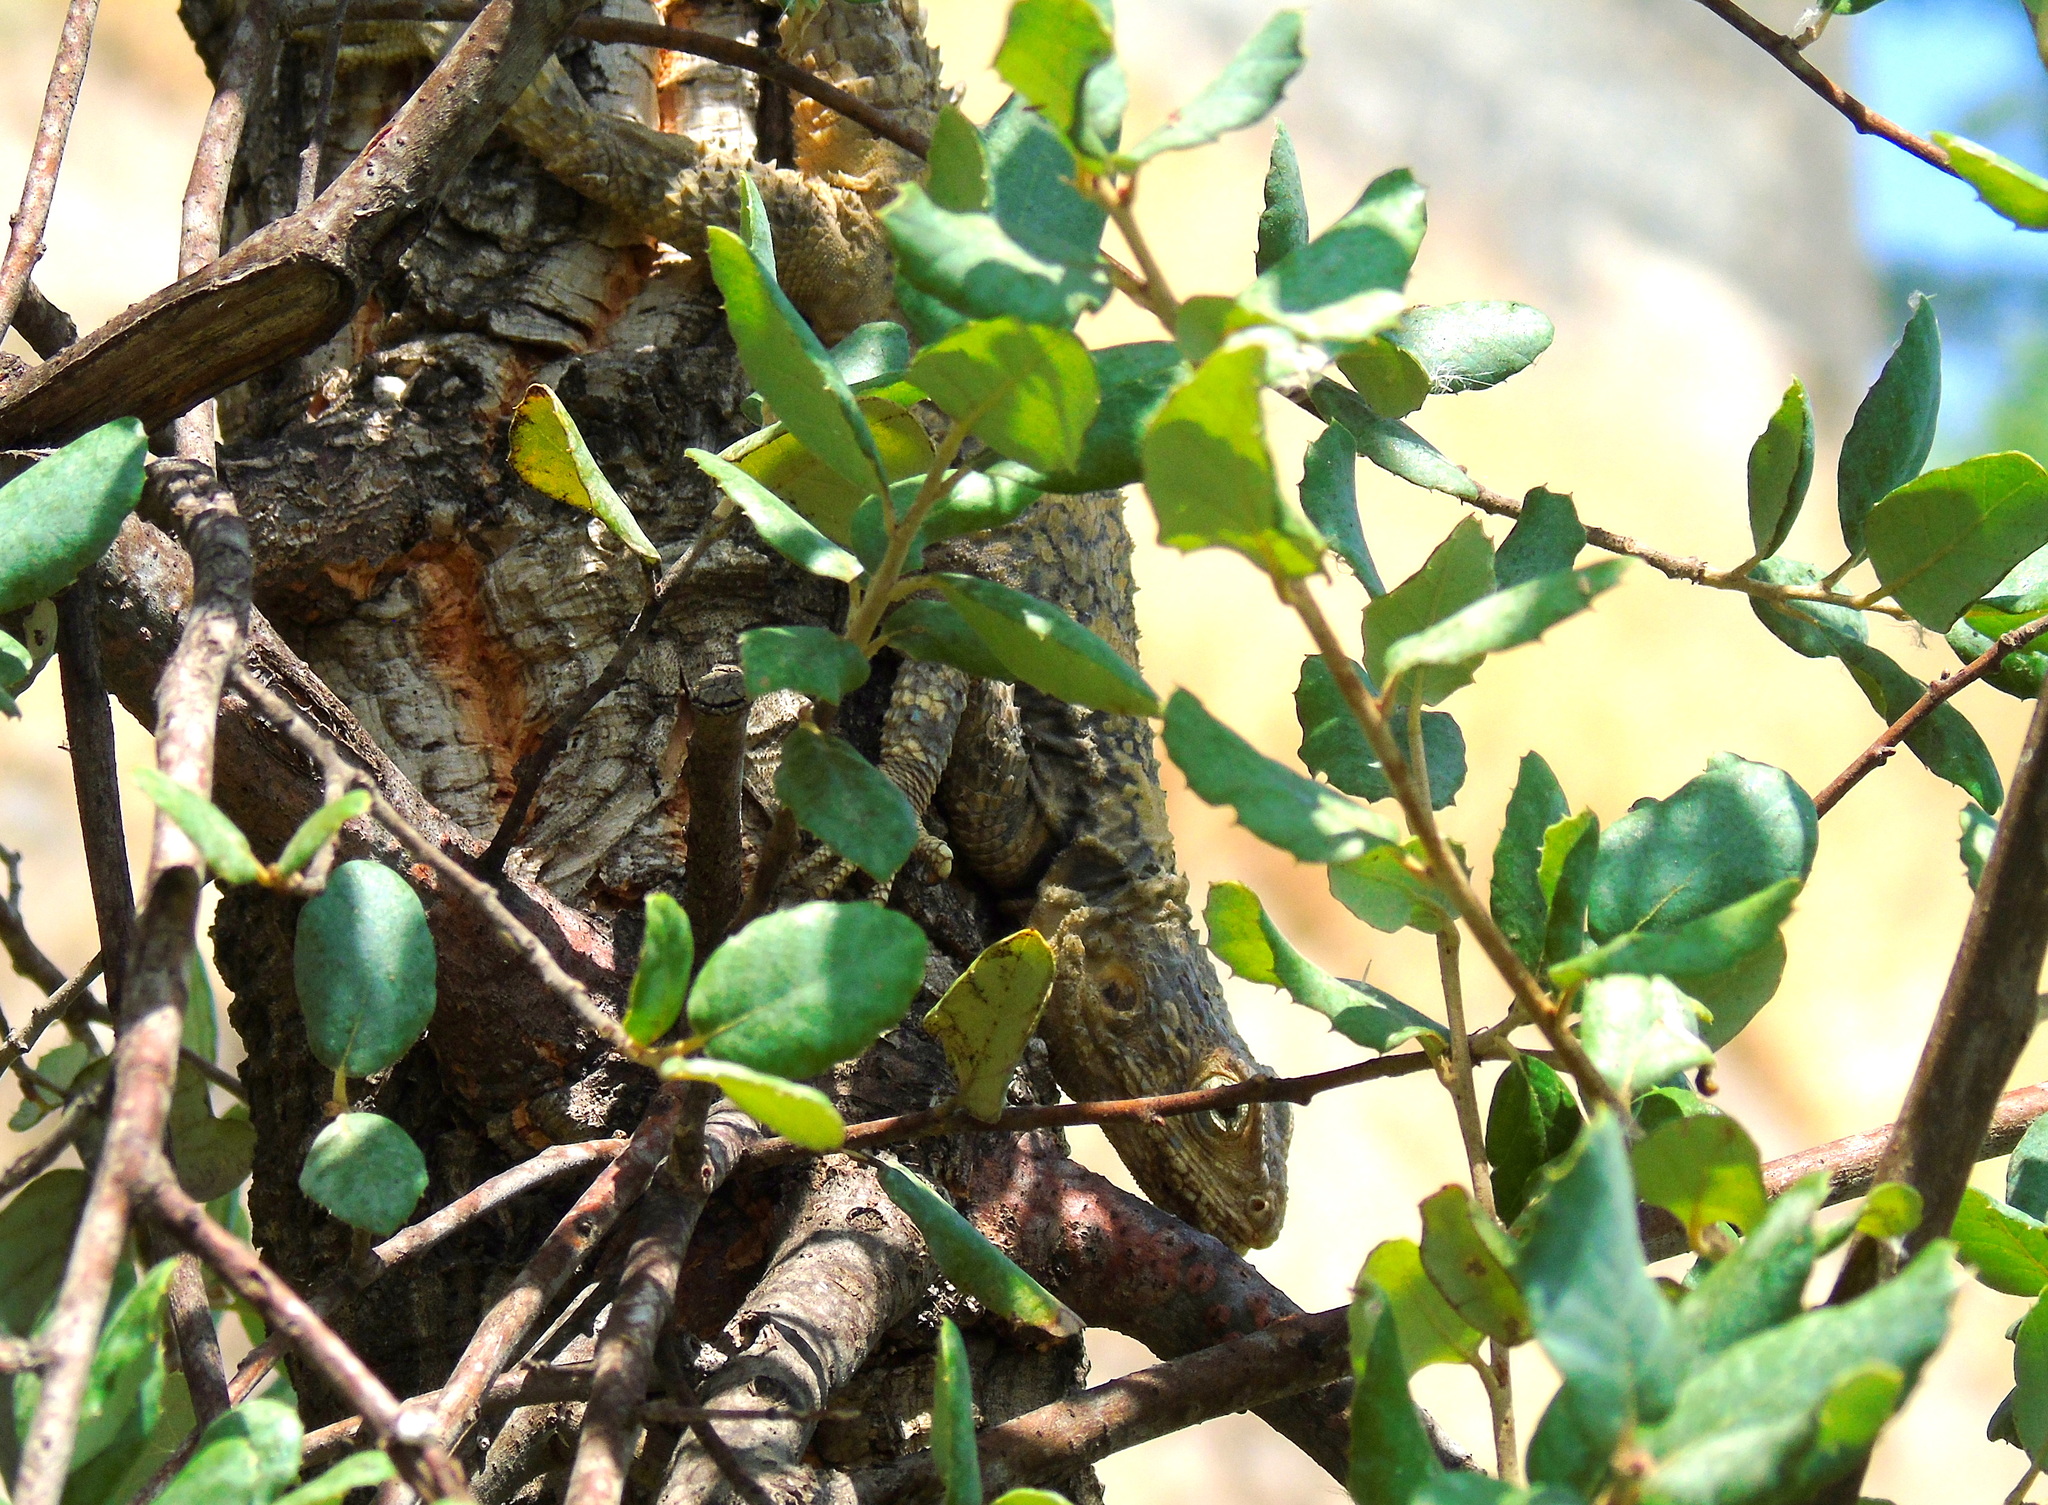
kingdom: Animalia
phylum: Chordata
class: Squamata
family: Agamidae
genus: Stellagama
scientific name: Stellagama stellio
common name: Starred agama
